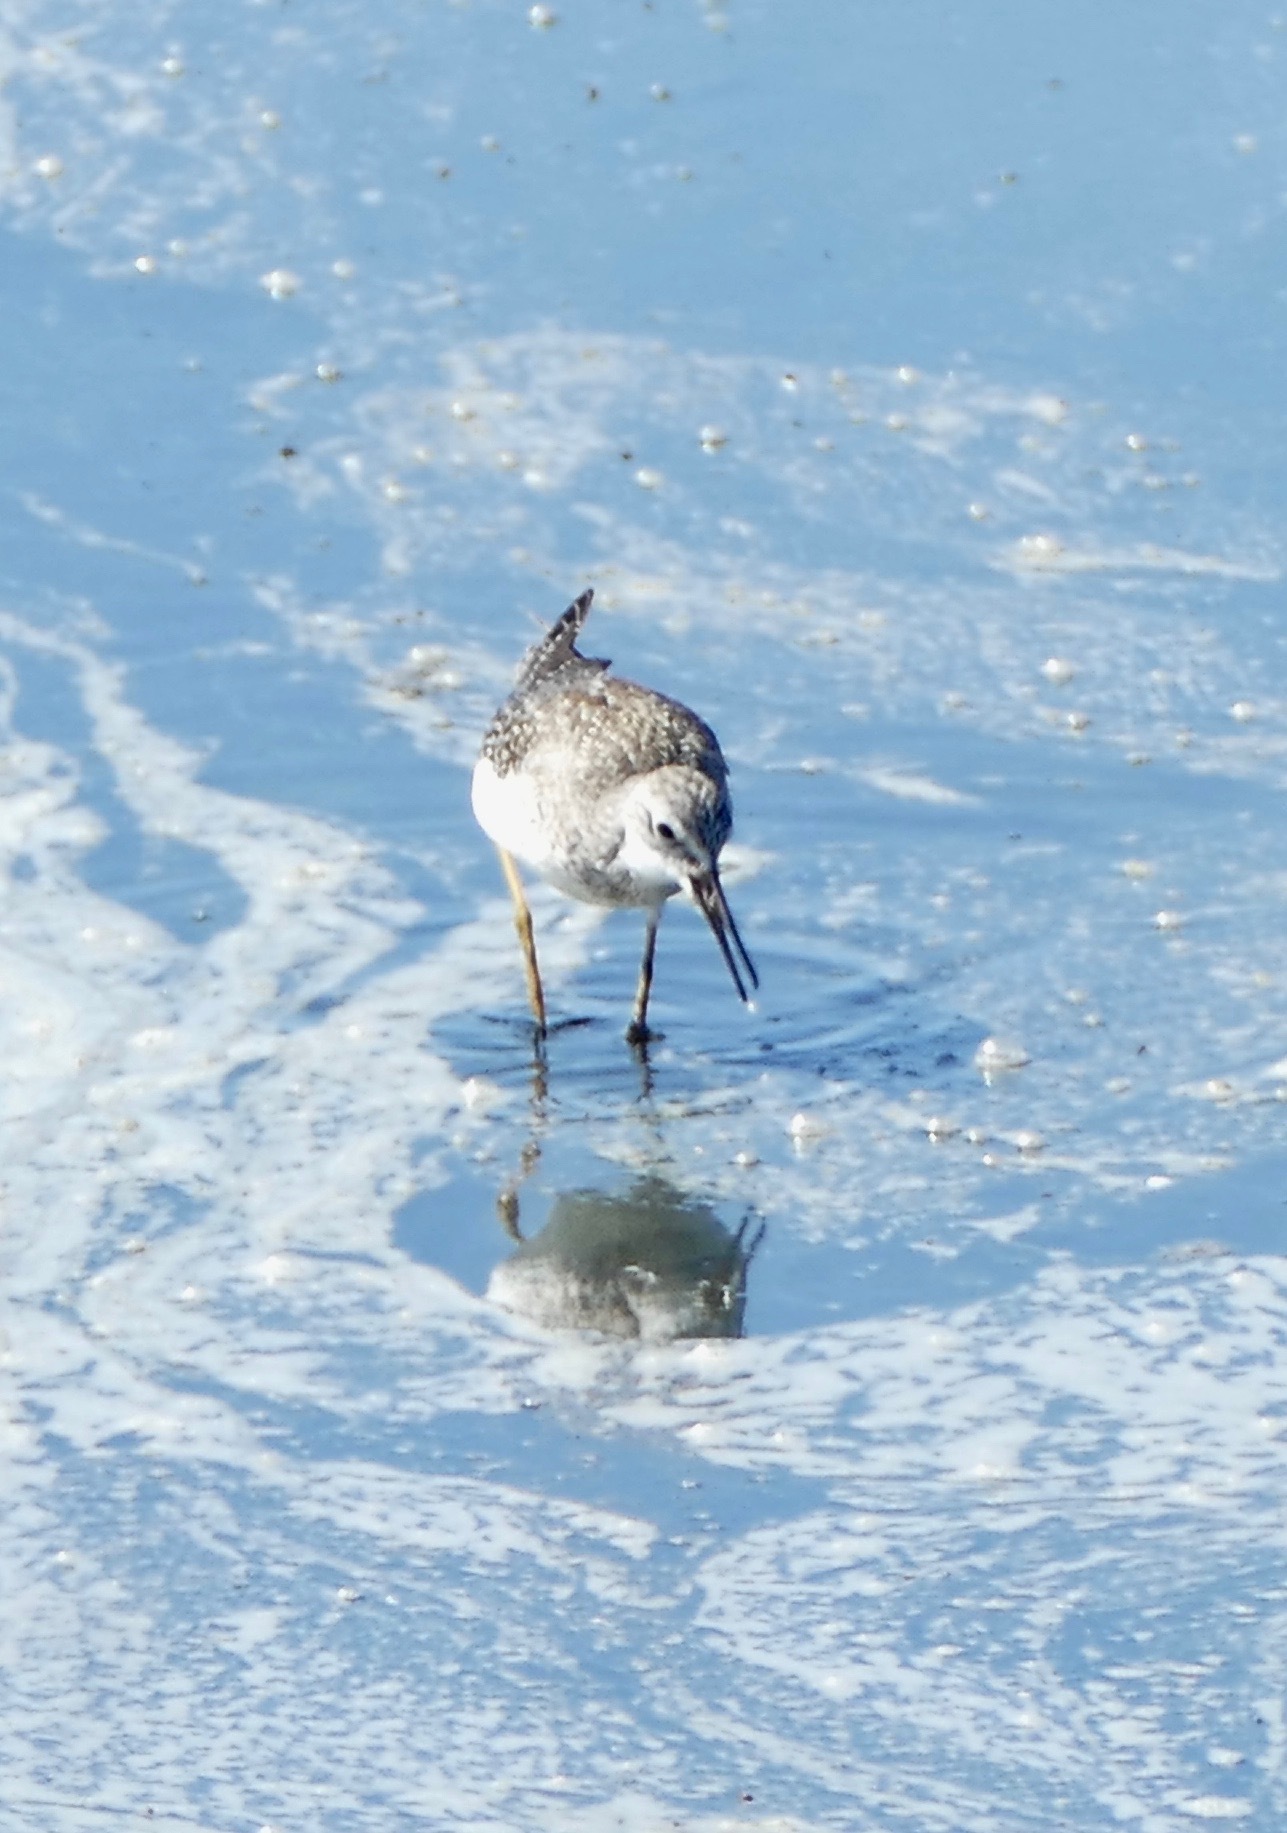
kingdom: Animalia
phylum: Chordata
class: Aves
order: Charadriiformes
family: Scolopacidae
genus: Tringa
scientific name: Tringa flavipes
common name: Lesser yellowlegs
